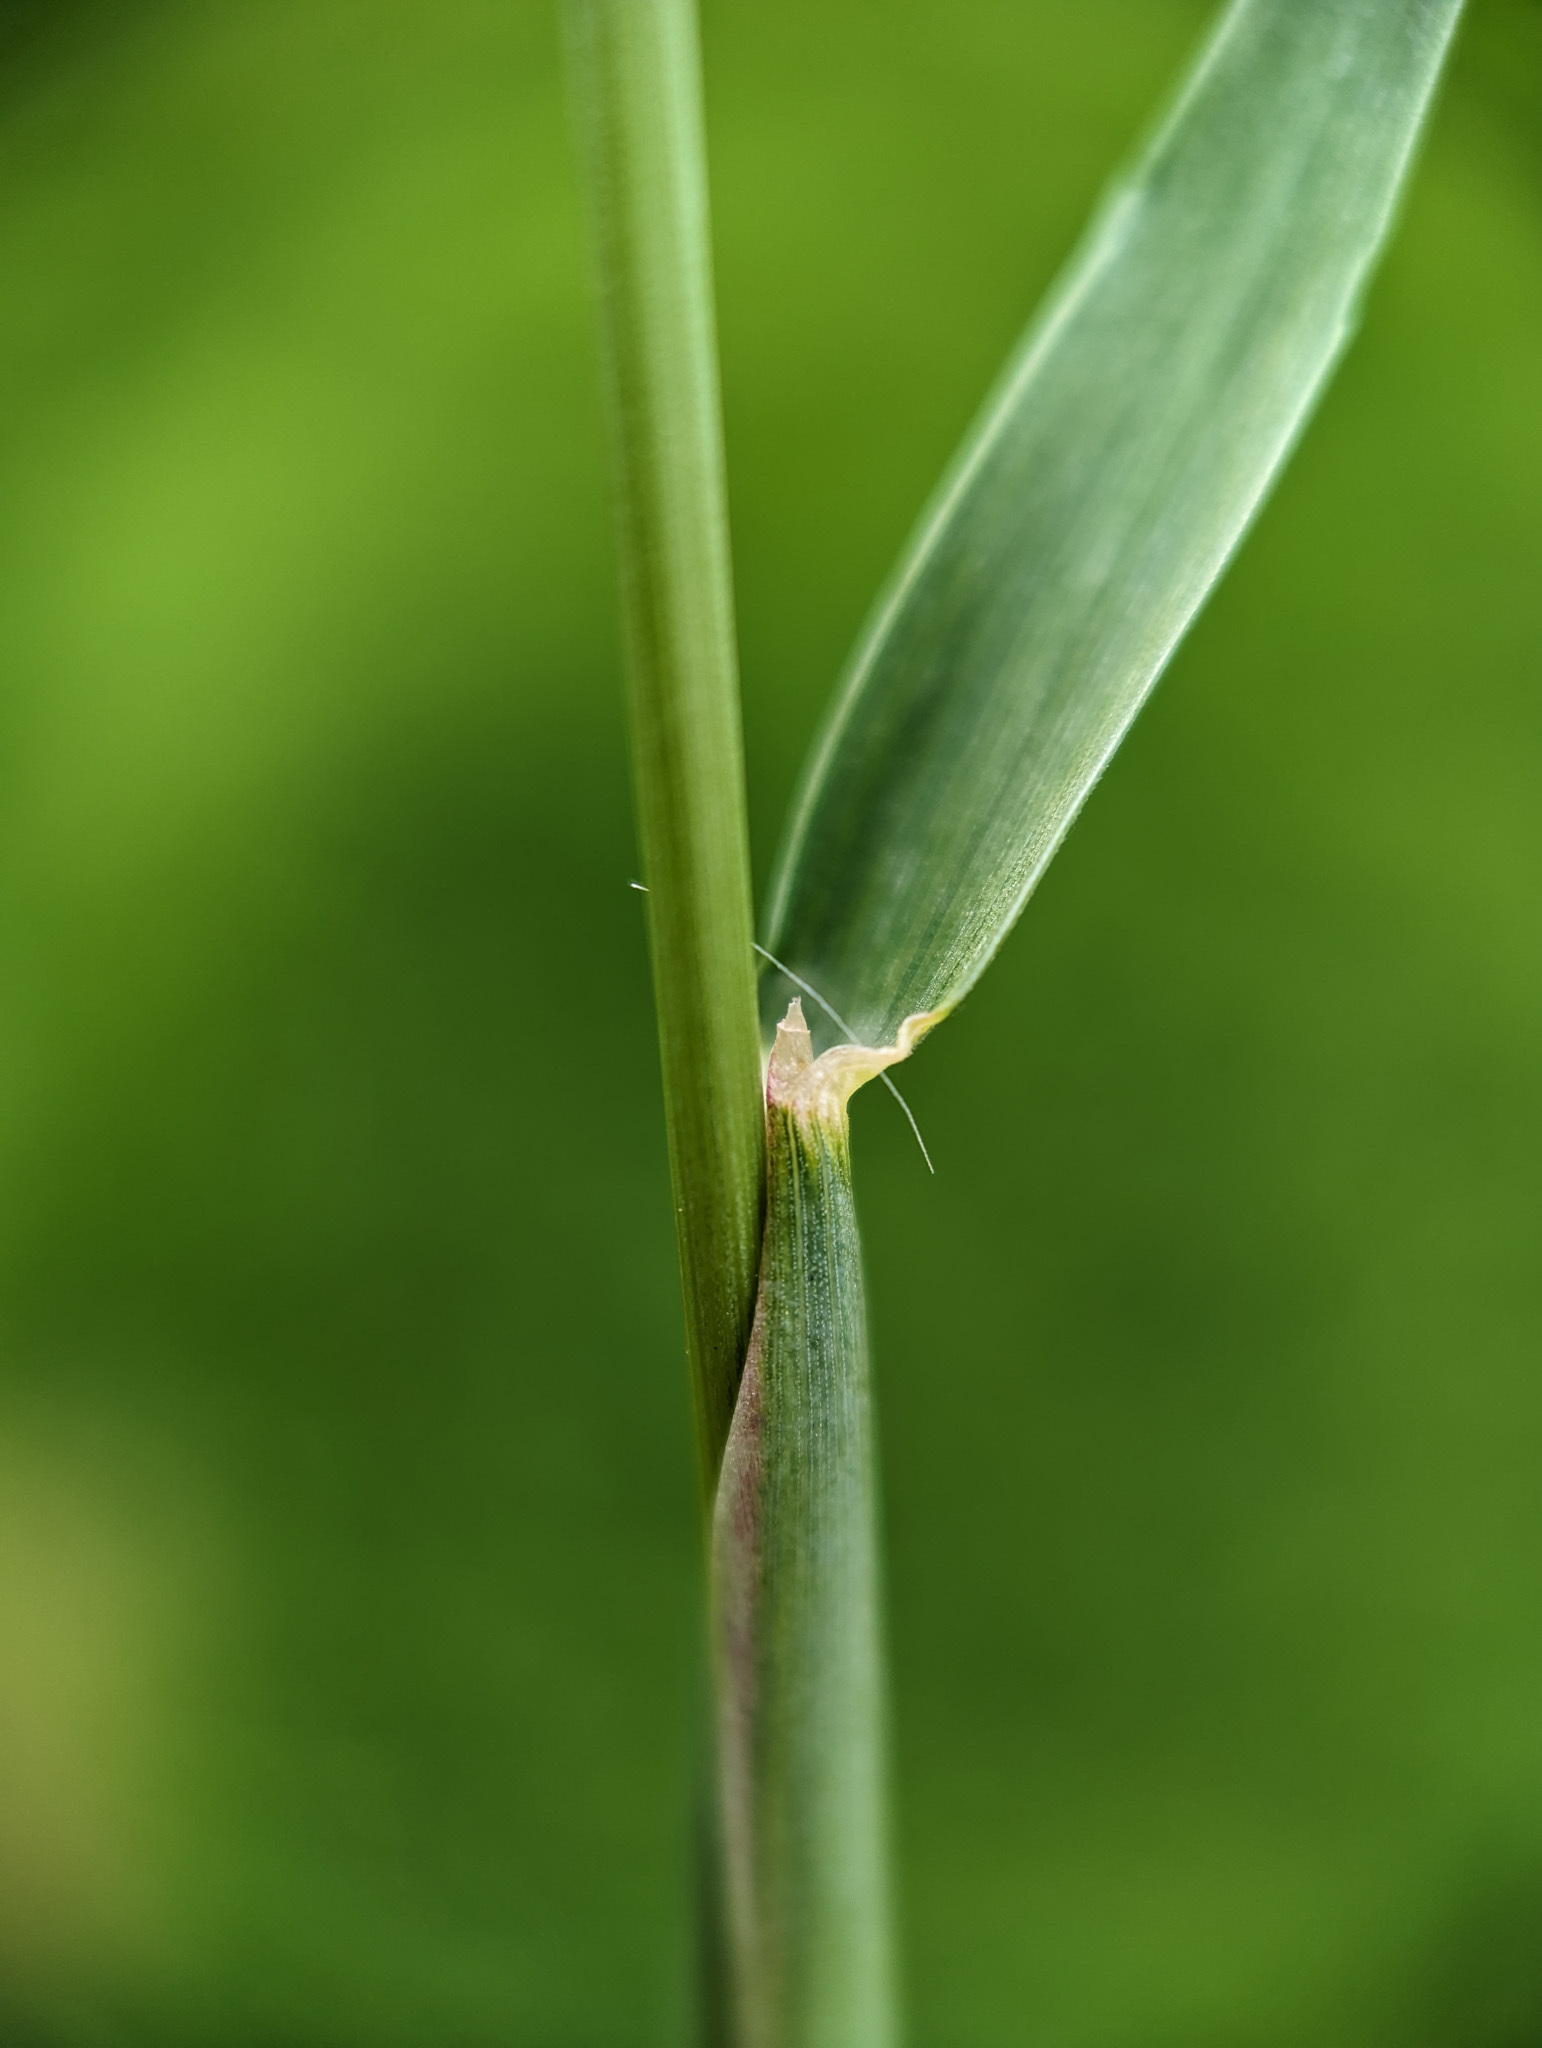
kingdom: Plantae
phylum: Tracheophyta
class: Liliopsida
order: Poales
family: Poaceae
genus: Alopecurus
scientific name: Alopecurus pratensis
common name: Meadow foxtail
